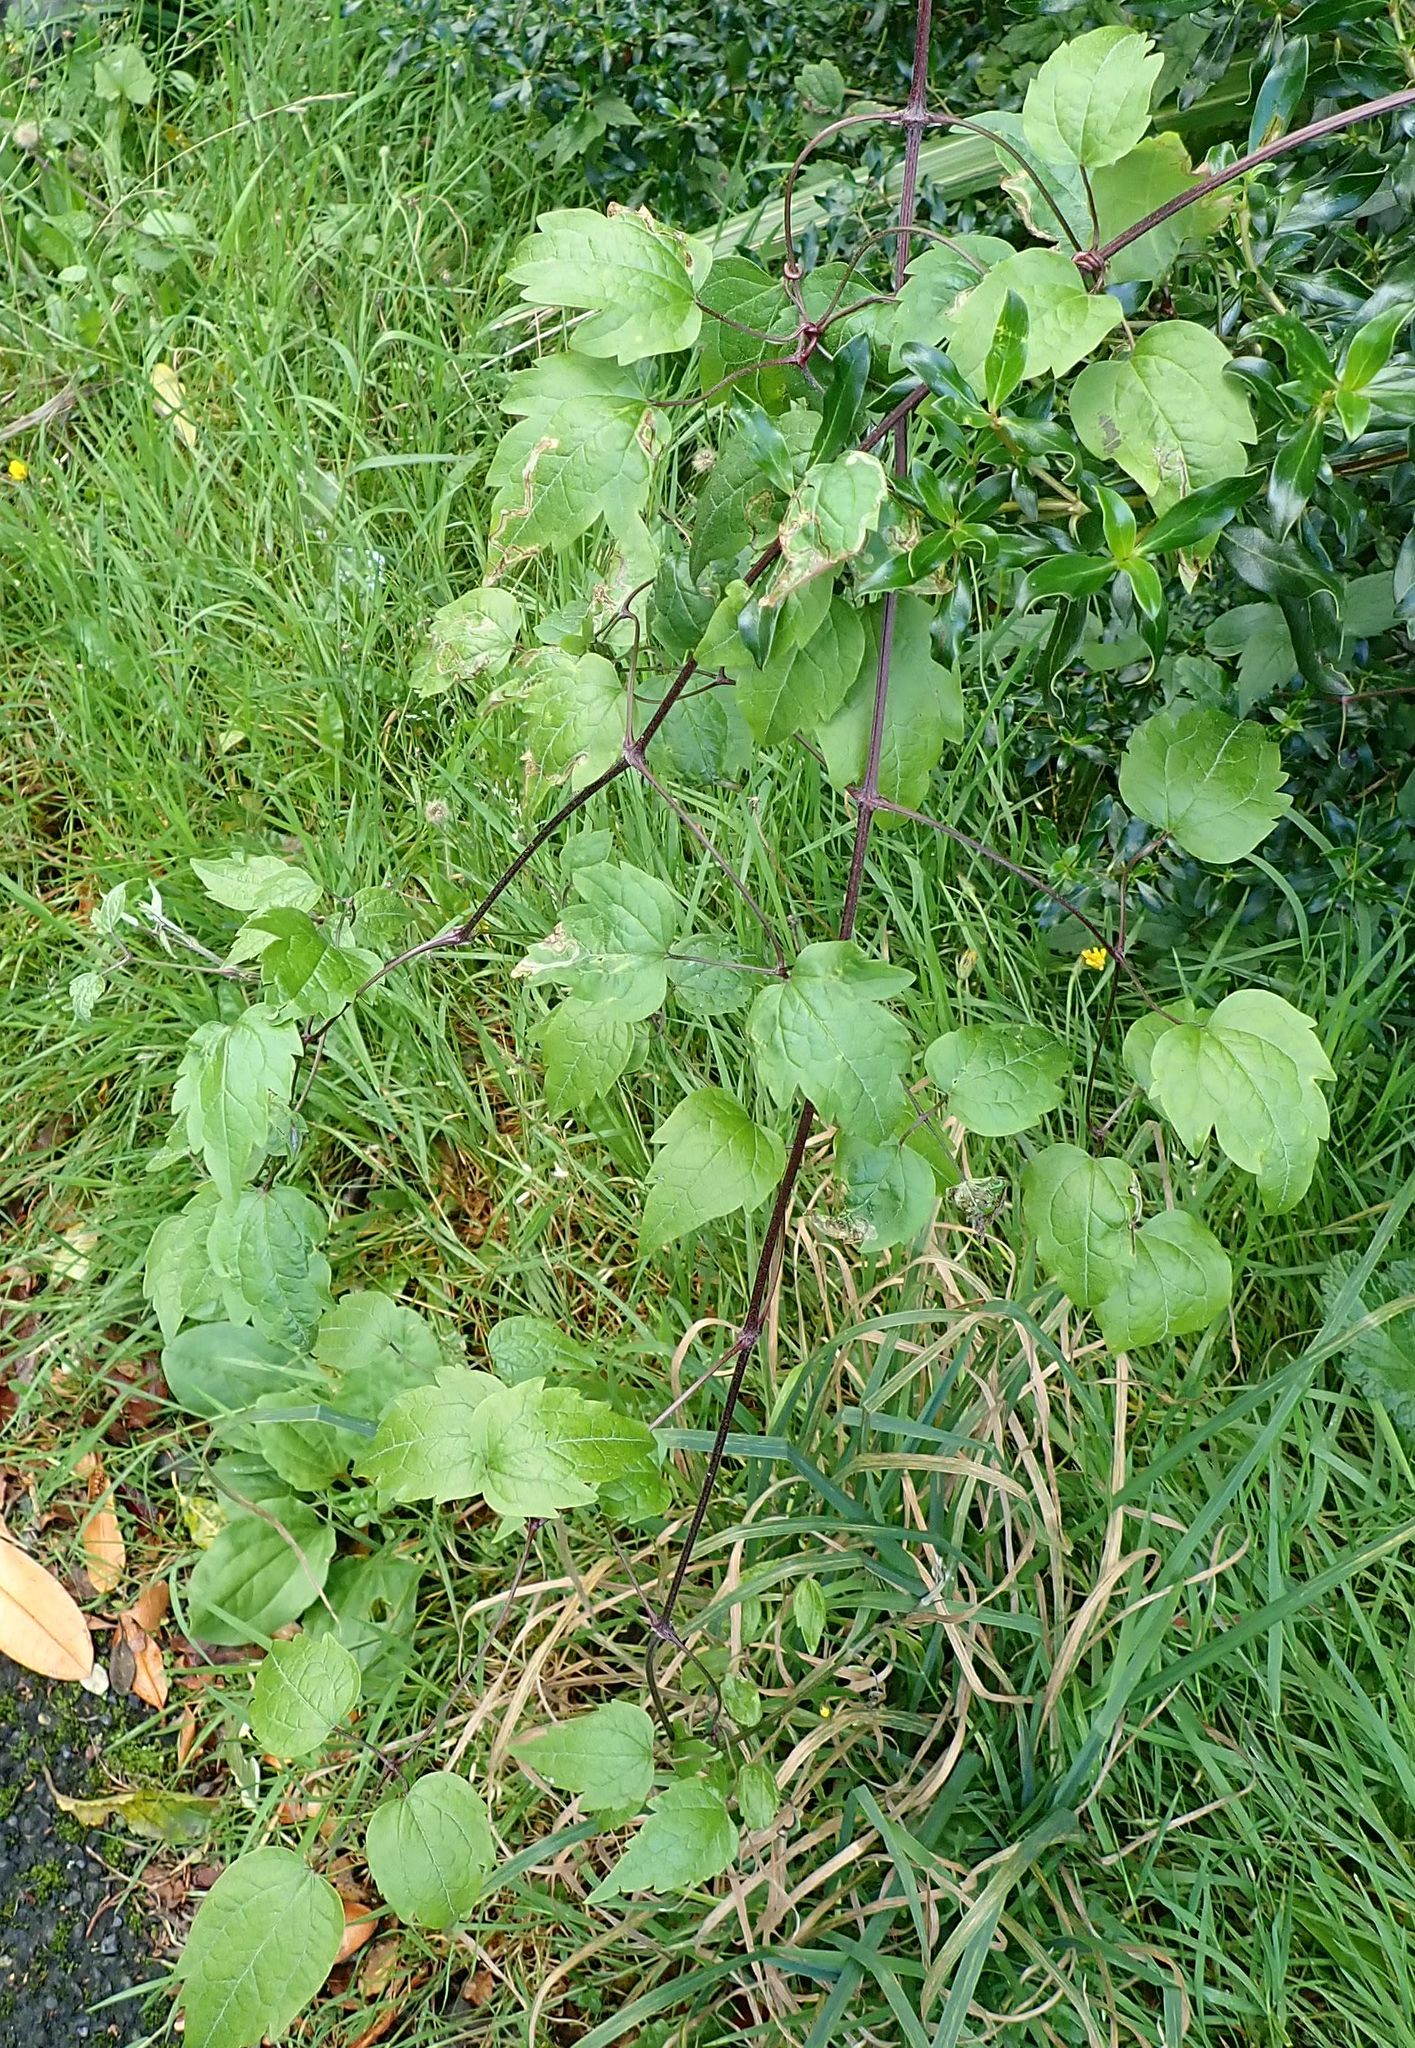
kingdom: Plantae
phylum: Tracheophyta
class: Magnoliopsida
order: Ranunculales
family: Ranunculaceae
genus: Clematis
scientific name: Clematis vitalba
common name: Evergreen clematis
